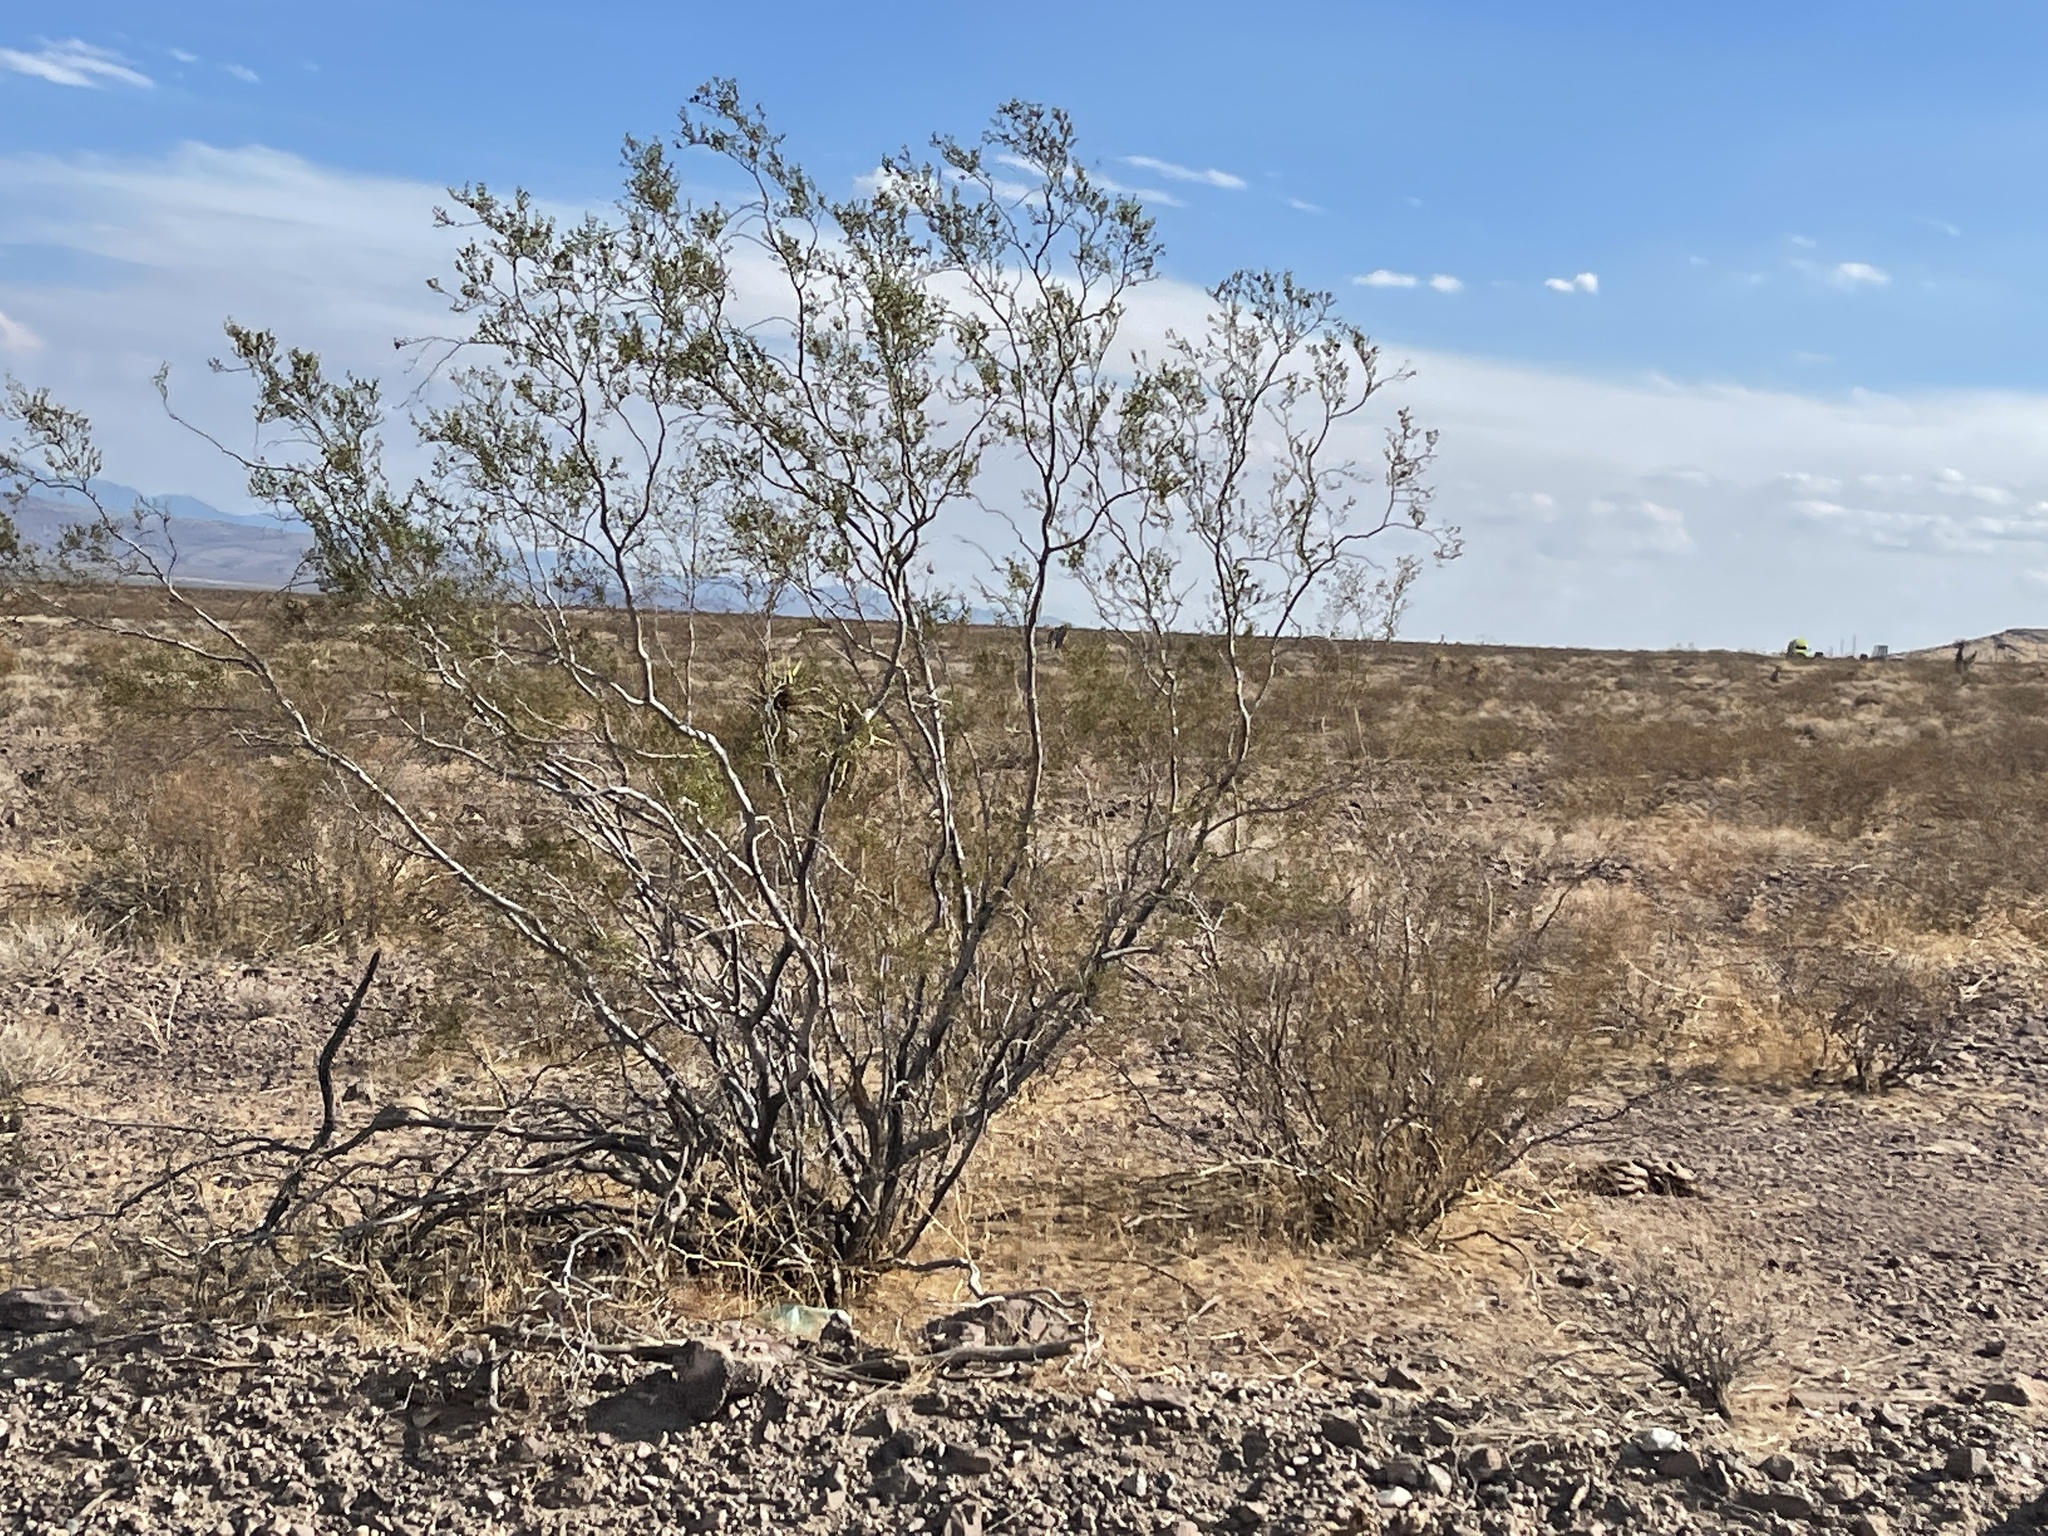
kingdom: Plantae
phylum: Tracheophyta
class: Magnoliopsida
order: Zygophyllales
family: Zygophyllaceae
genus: Larrea
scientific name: Larrea tridentata
